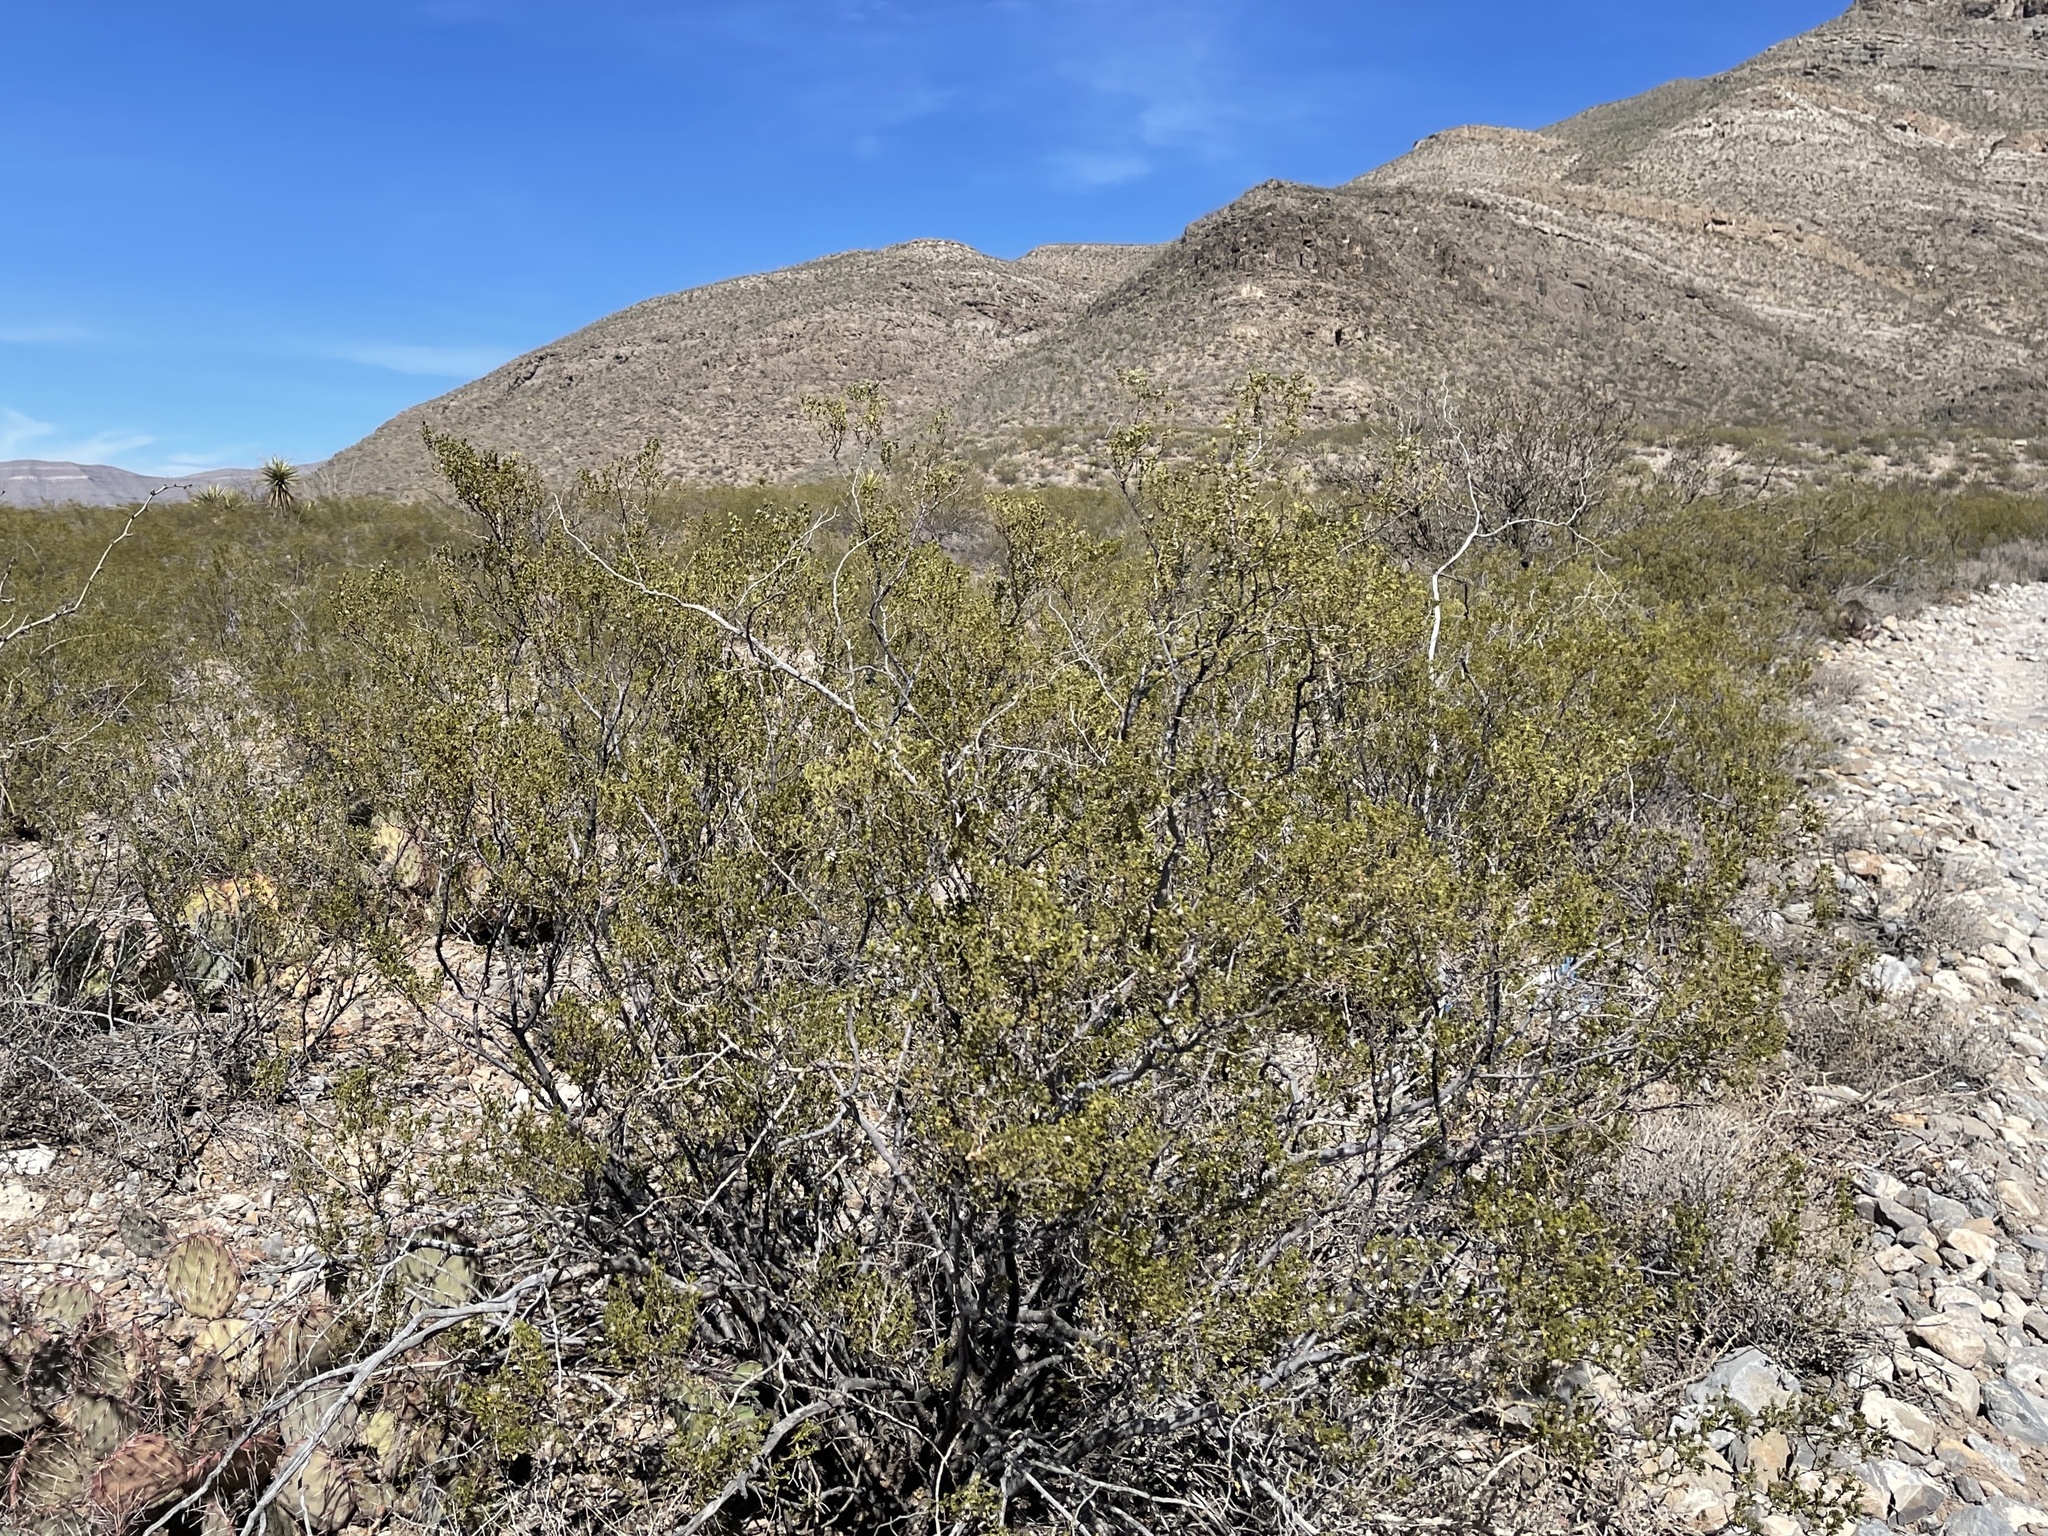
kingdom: Plantae
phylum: Tracheophyta
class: Magnoliopsida
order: Zygophyllales
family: Zygophyllaceae
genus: Larrea
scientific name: Larrea tridentata
